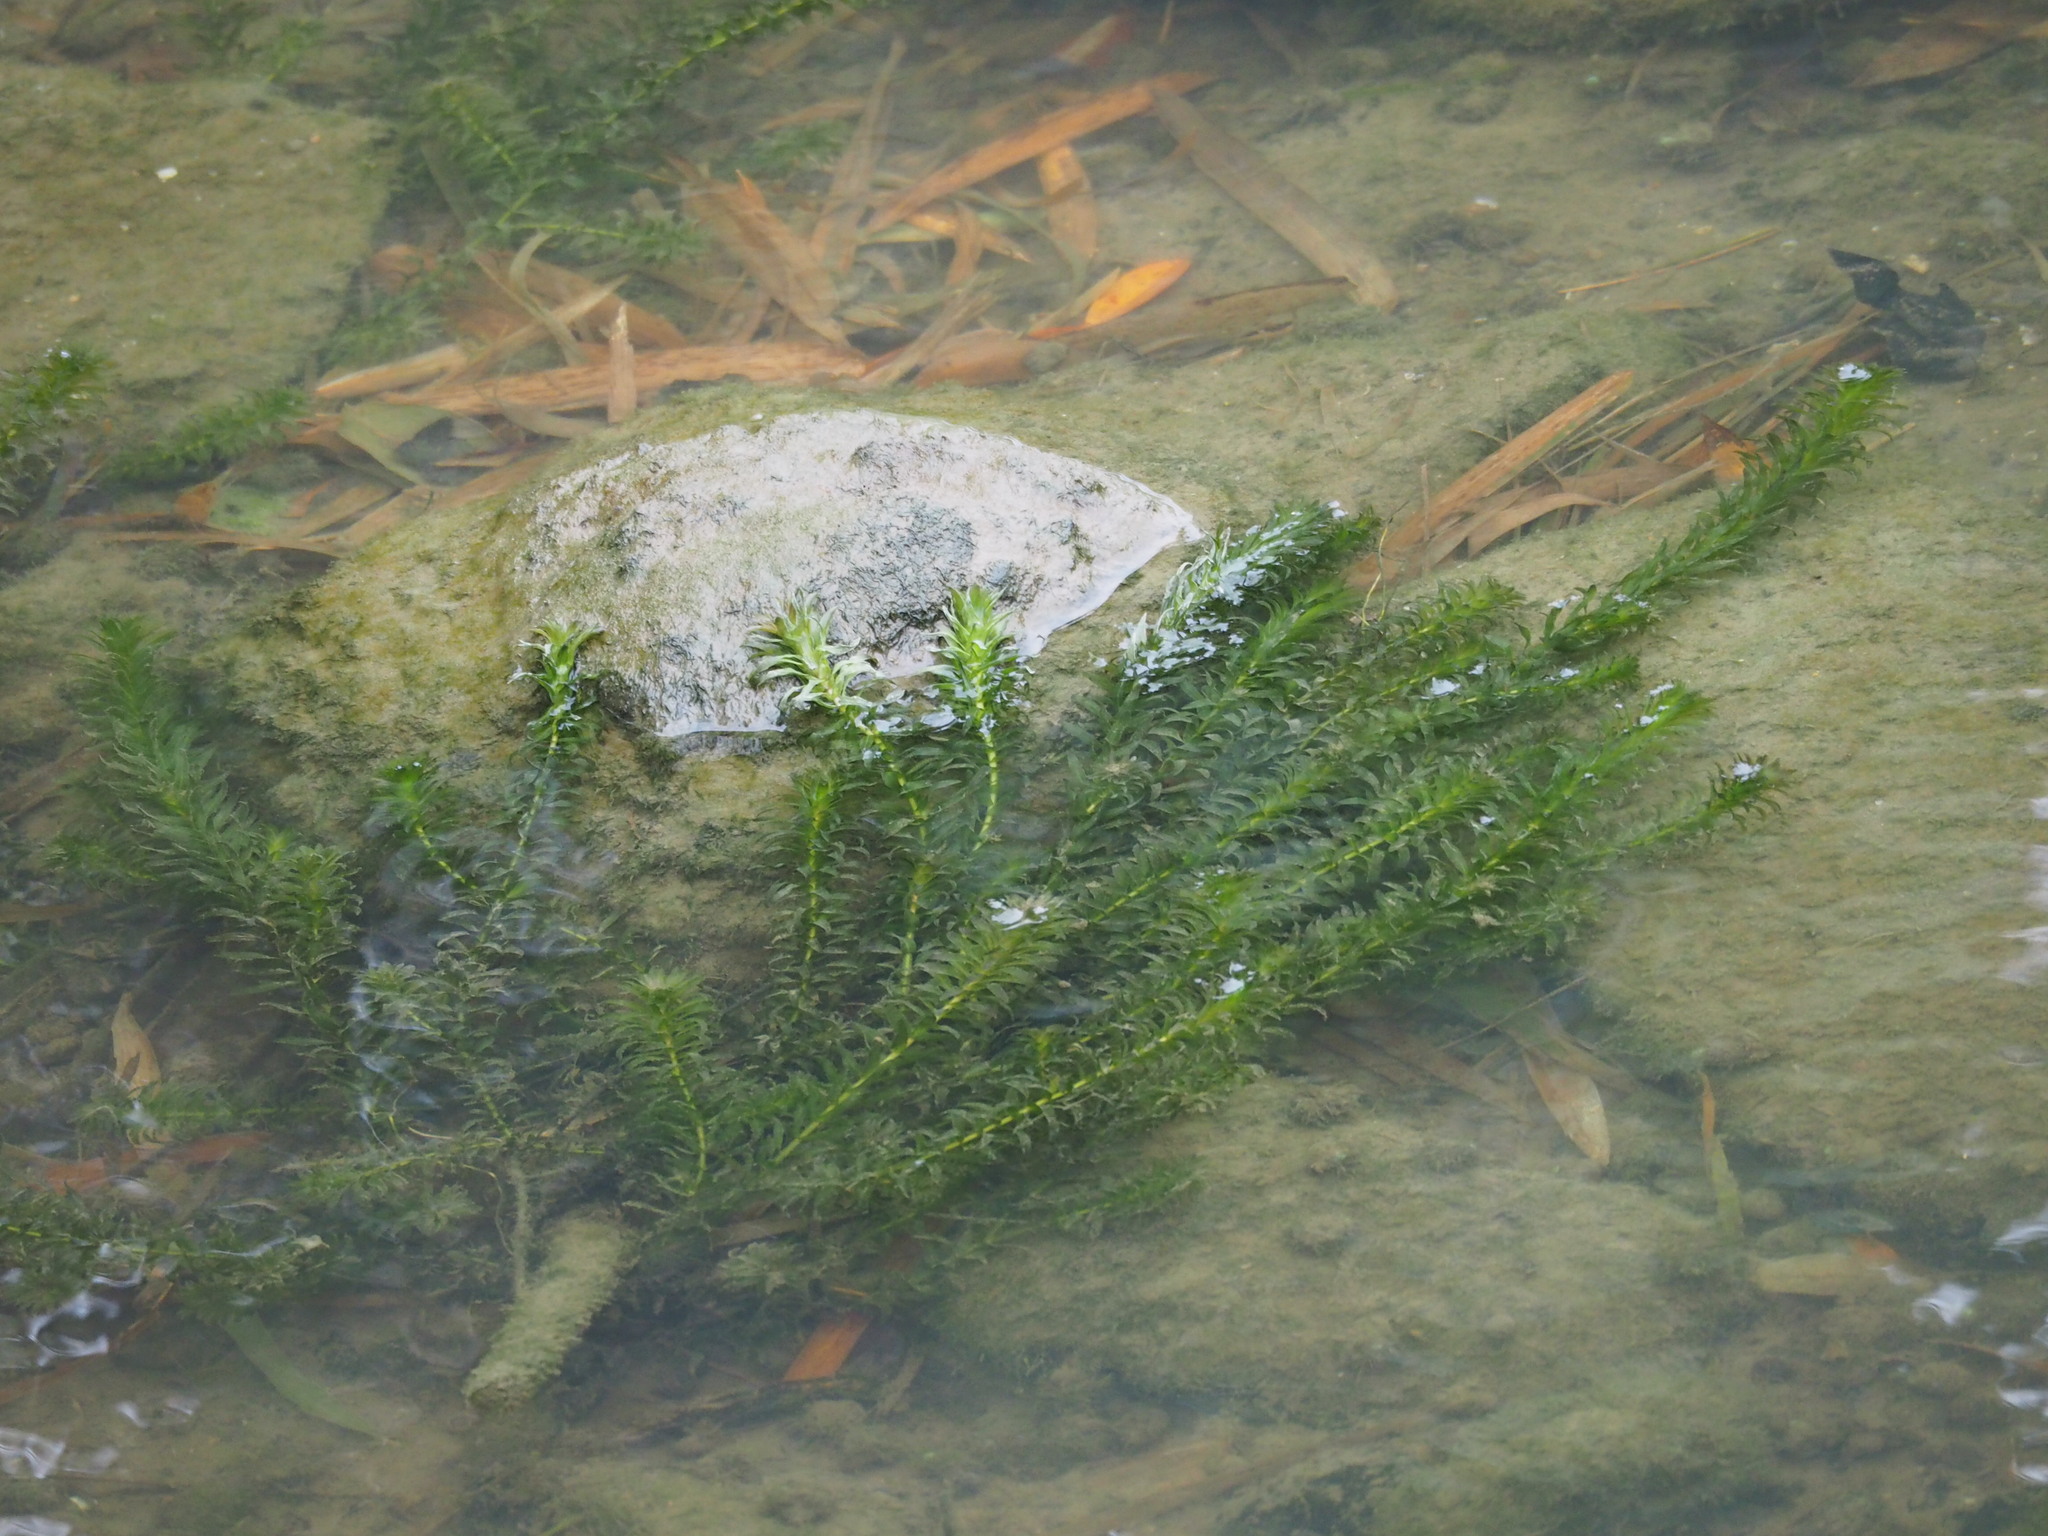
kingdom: Plantae
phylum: Tracheophyta
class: Liliopsida
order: Alismatales
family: Hydrocharitaceae
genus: Elodea
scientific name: Elodea densa
